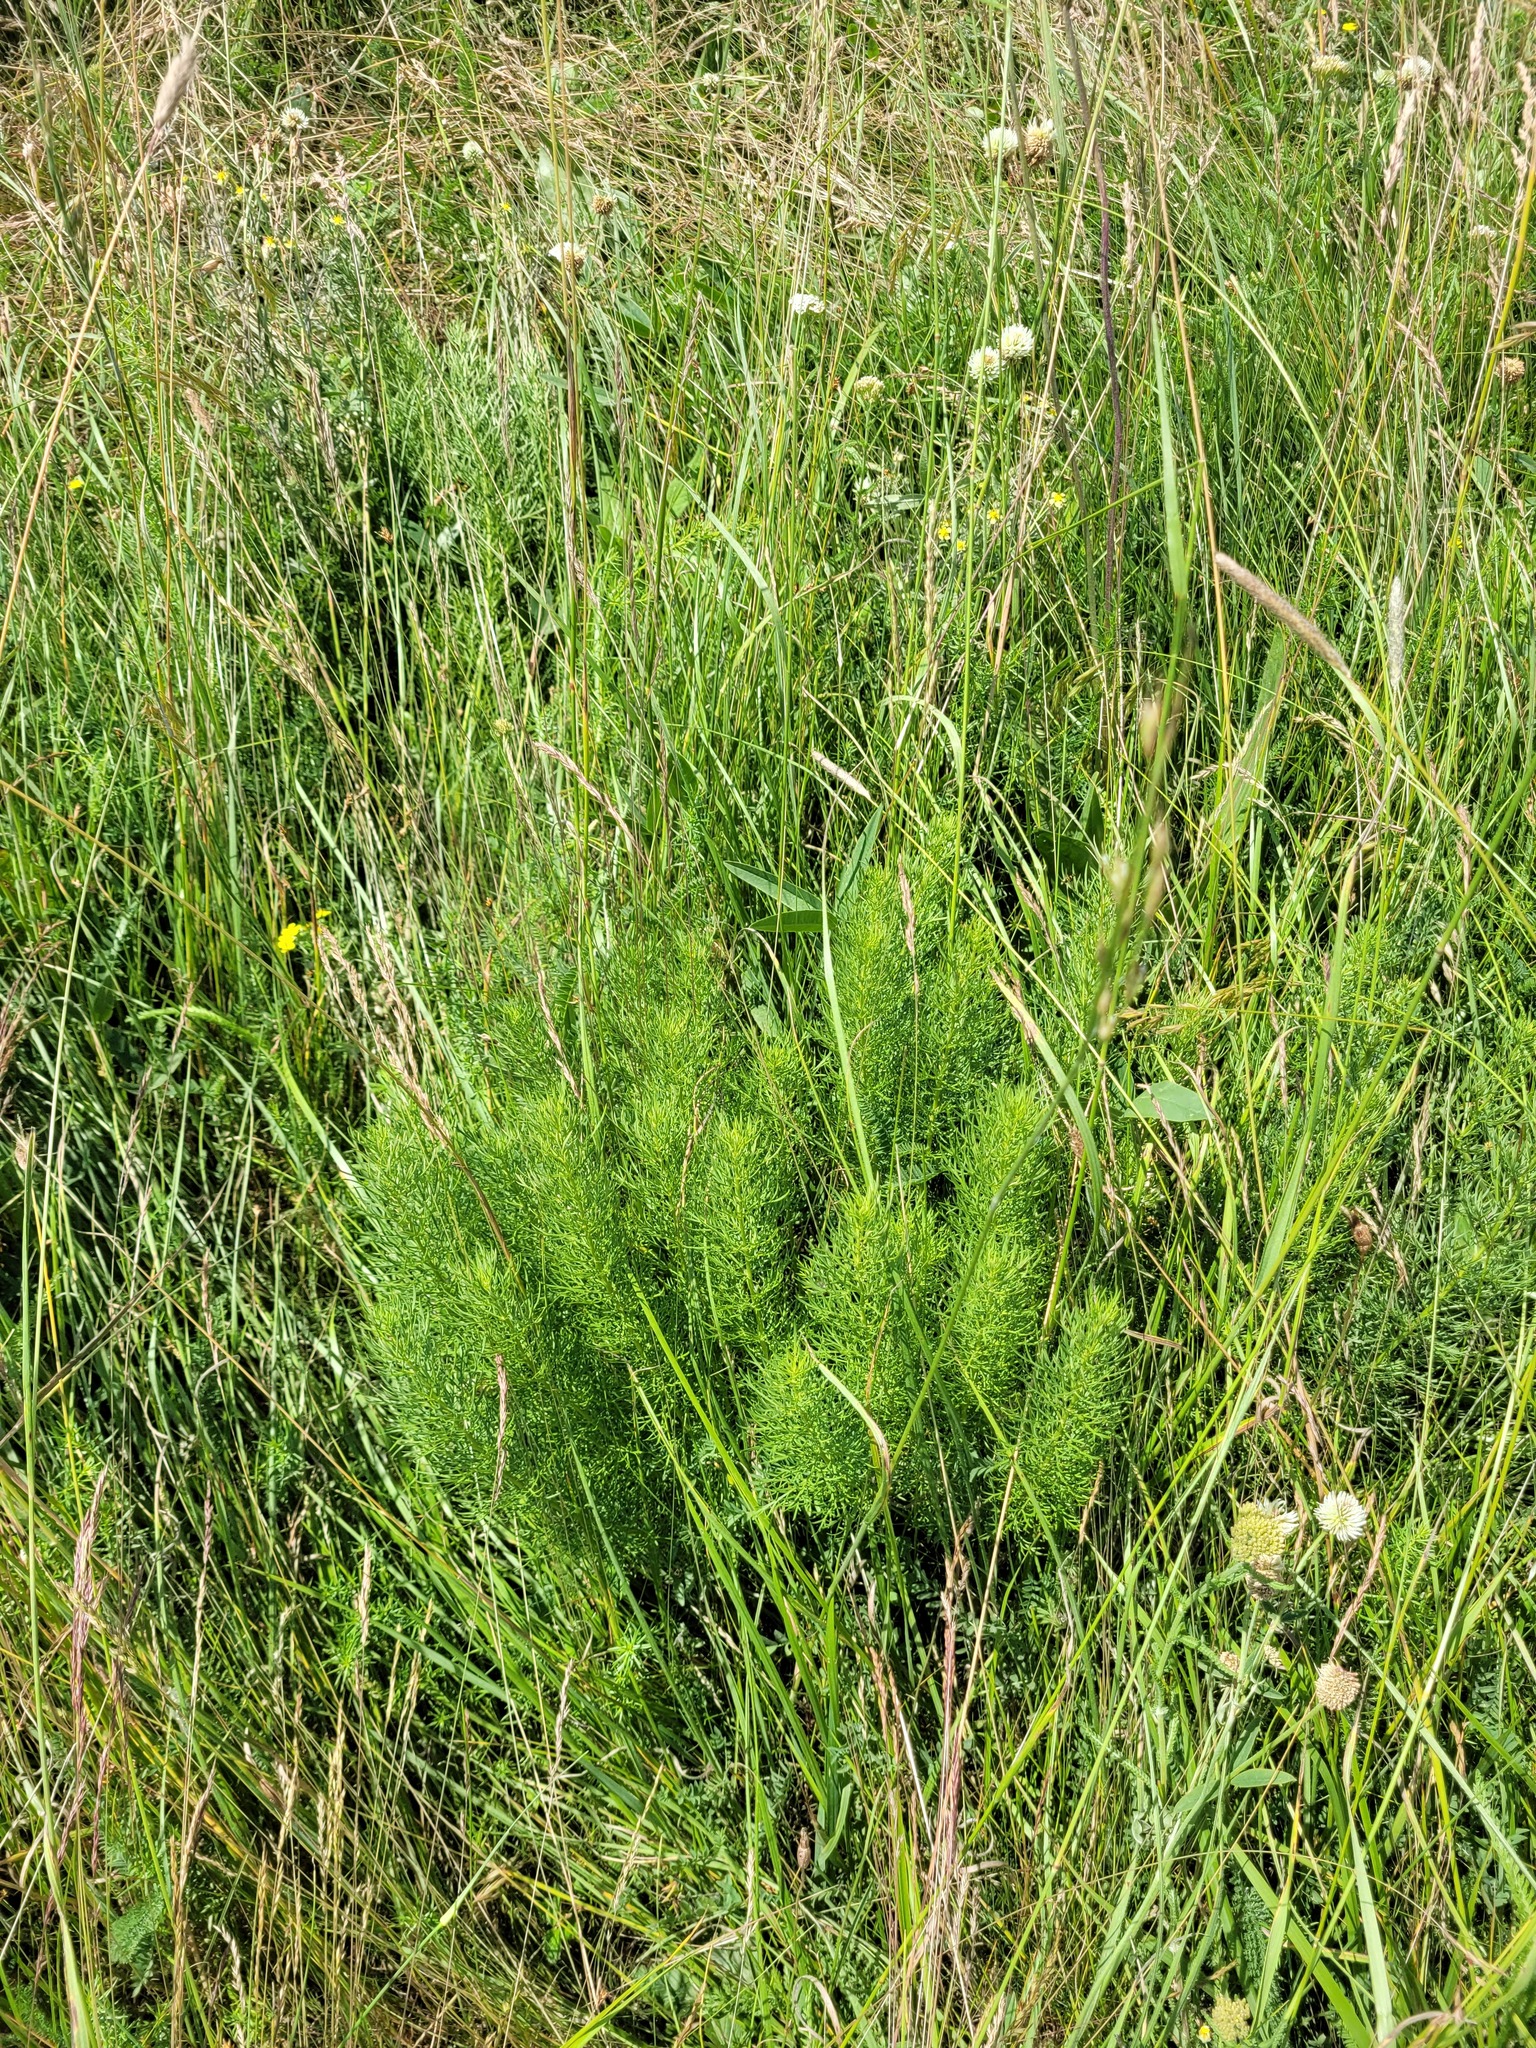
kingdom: Plantae
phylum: Tracheophyta
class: Magnoliopsida
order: Ranunculales
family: Ranunculaceae
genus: Adonis
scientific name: Adonis vernalis
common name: Yellow pheasants-eye
